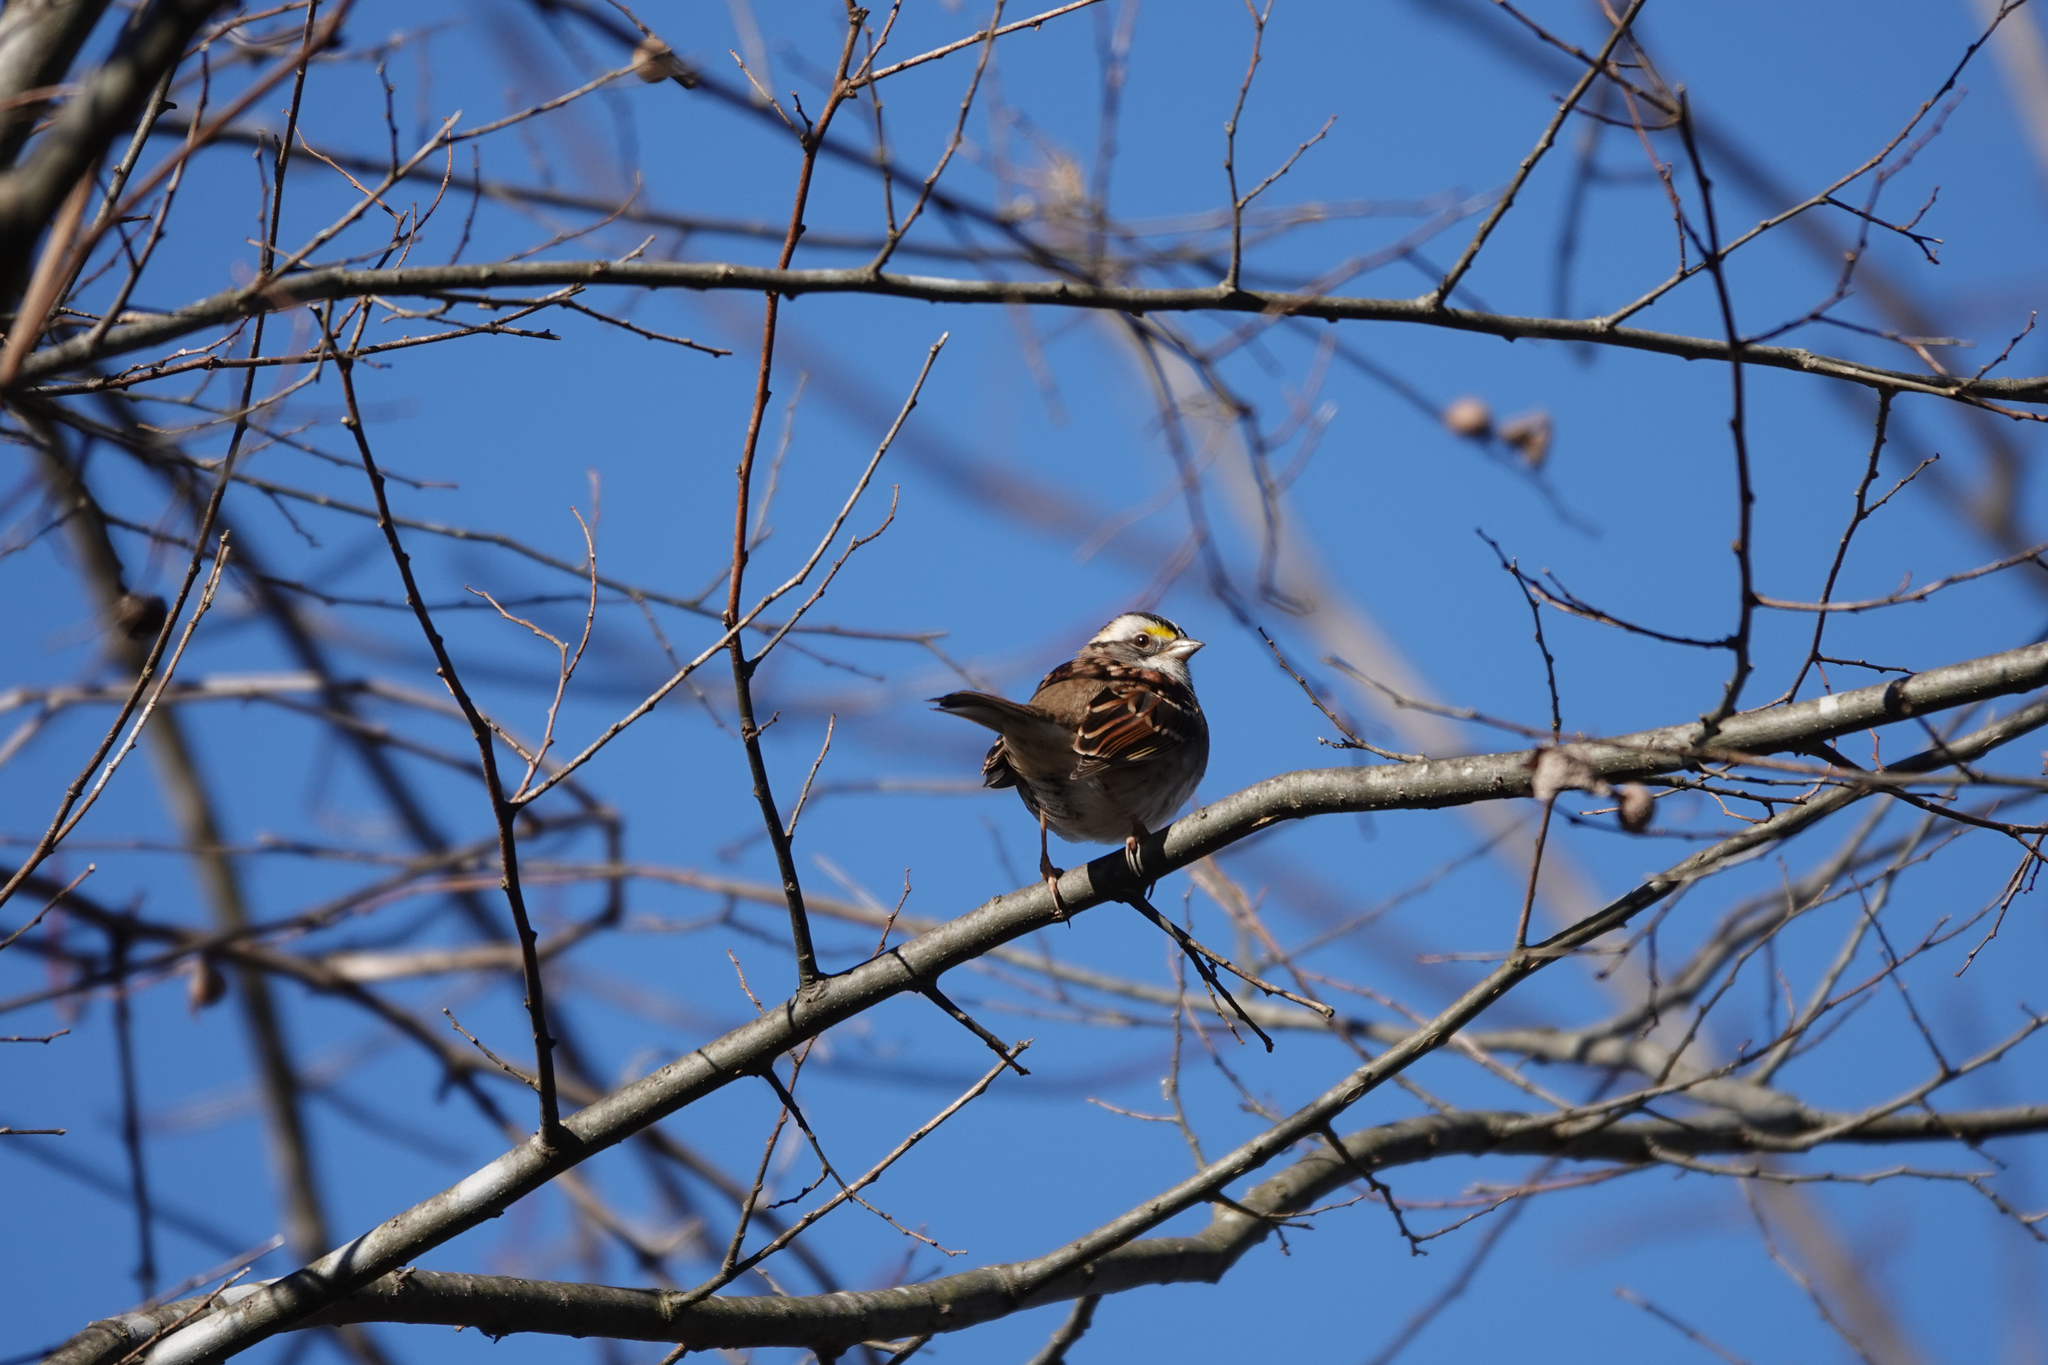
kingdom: Animalia
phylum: Chordata
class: Aves
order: Passeriformes
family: Passerellidae
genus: Zonotrichia
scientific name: Zonotrichia albicollis
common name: White-throated sparrow
